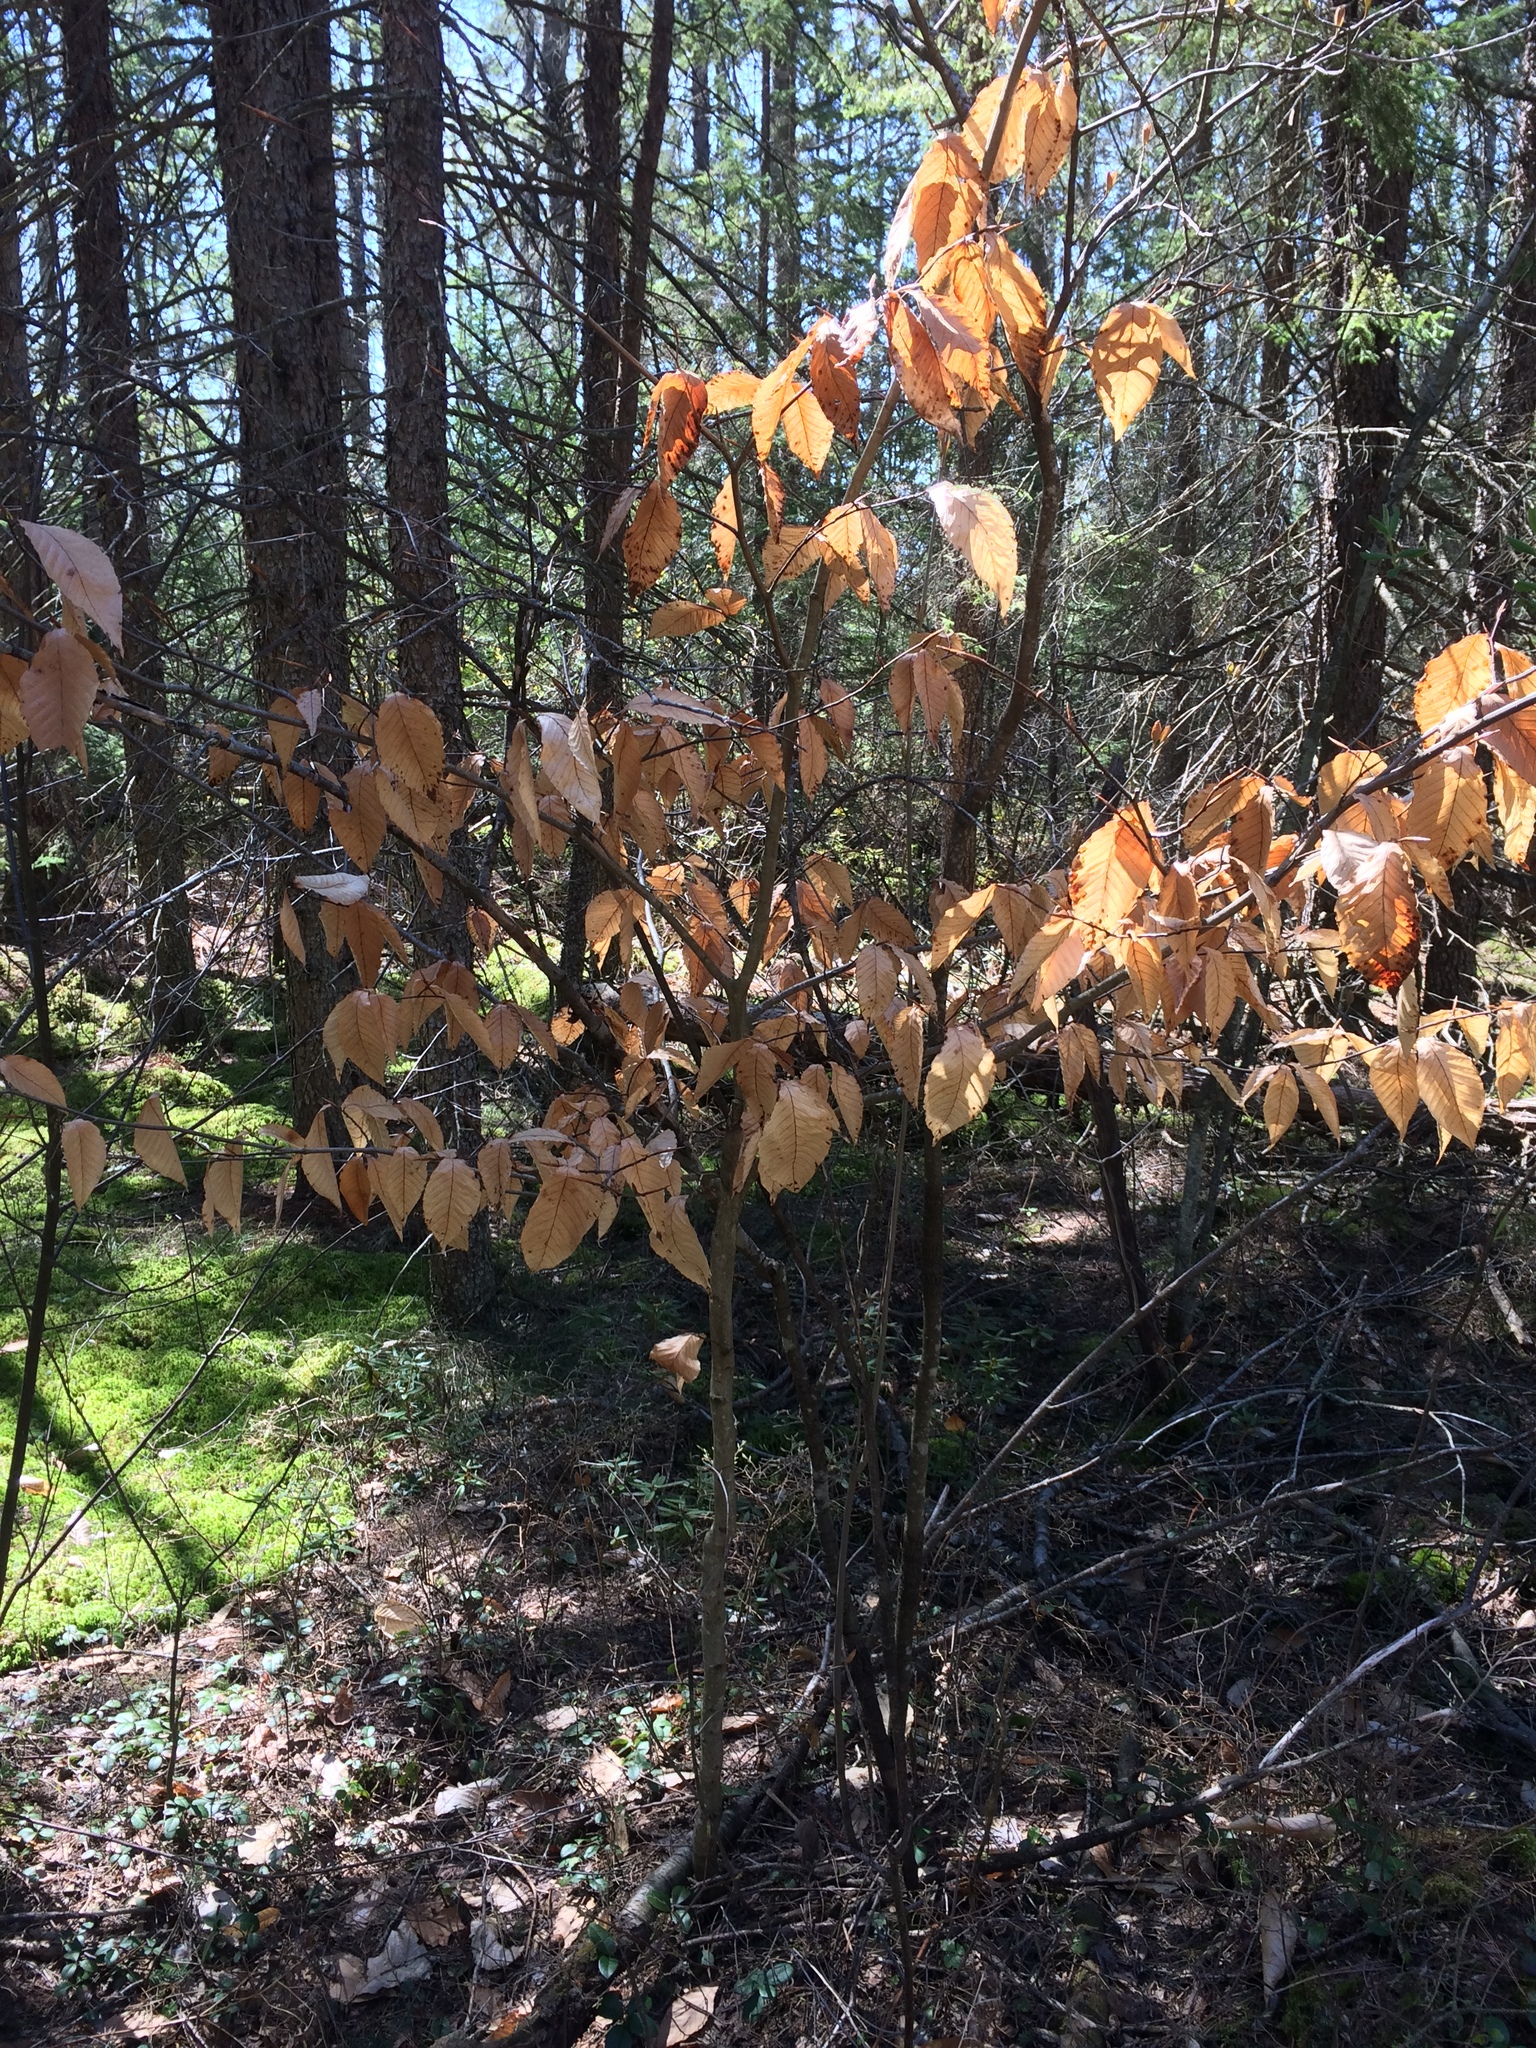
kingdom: Plantae
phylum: Tracheophyta
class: Magnoliopsida
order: Fagales
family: Fagaceae
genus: Fagus
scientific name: Fagus grandifolia
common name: American beech
